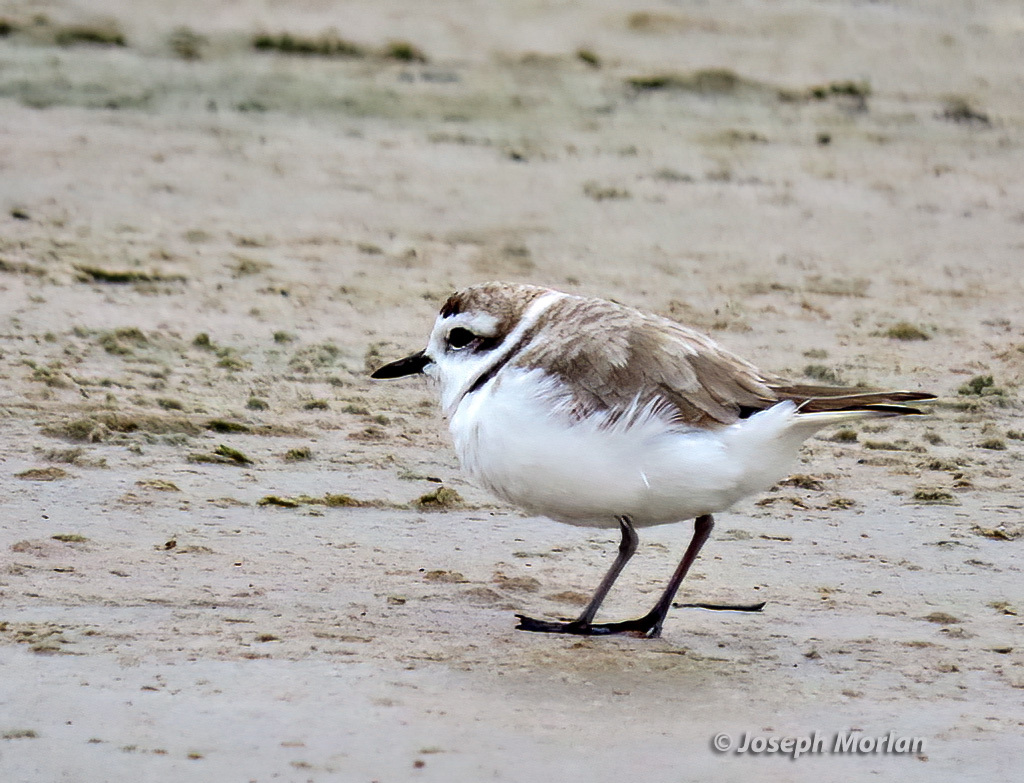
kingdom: Animalia
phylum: Chordata
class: Aves
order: Charadriiformes
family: Charadriidae
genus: Anarhynchus
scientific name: Anarhynchus
